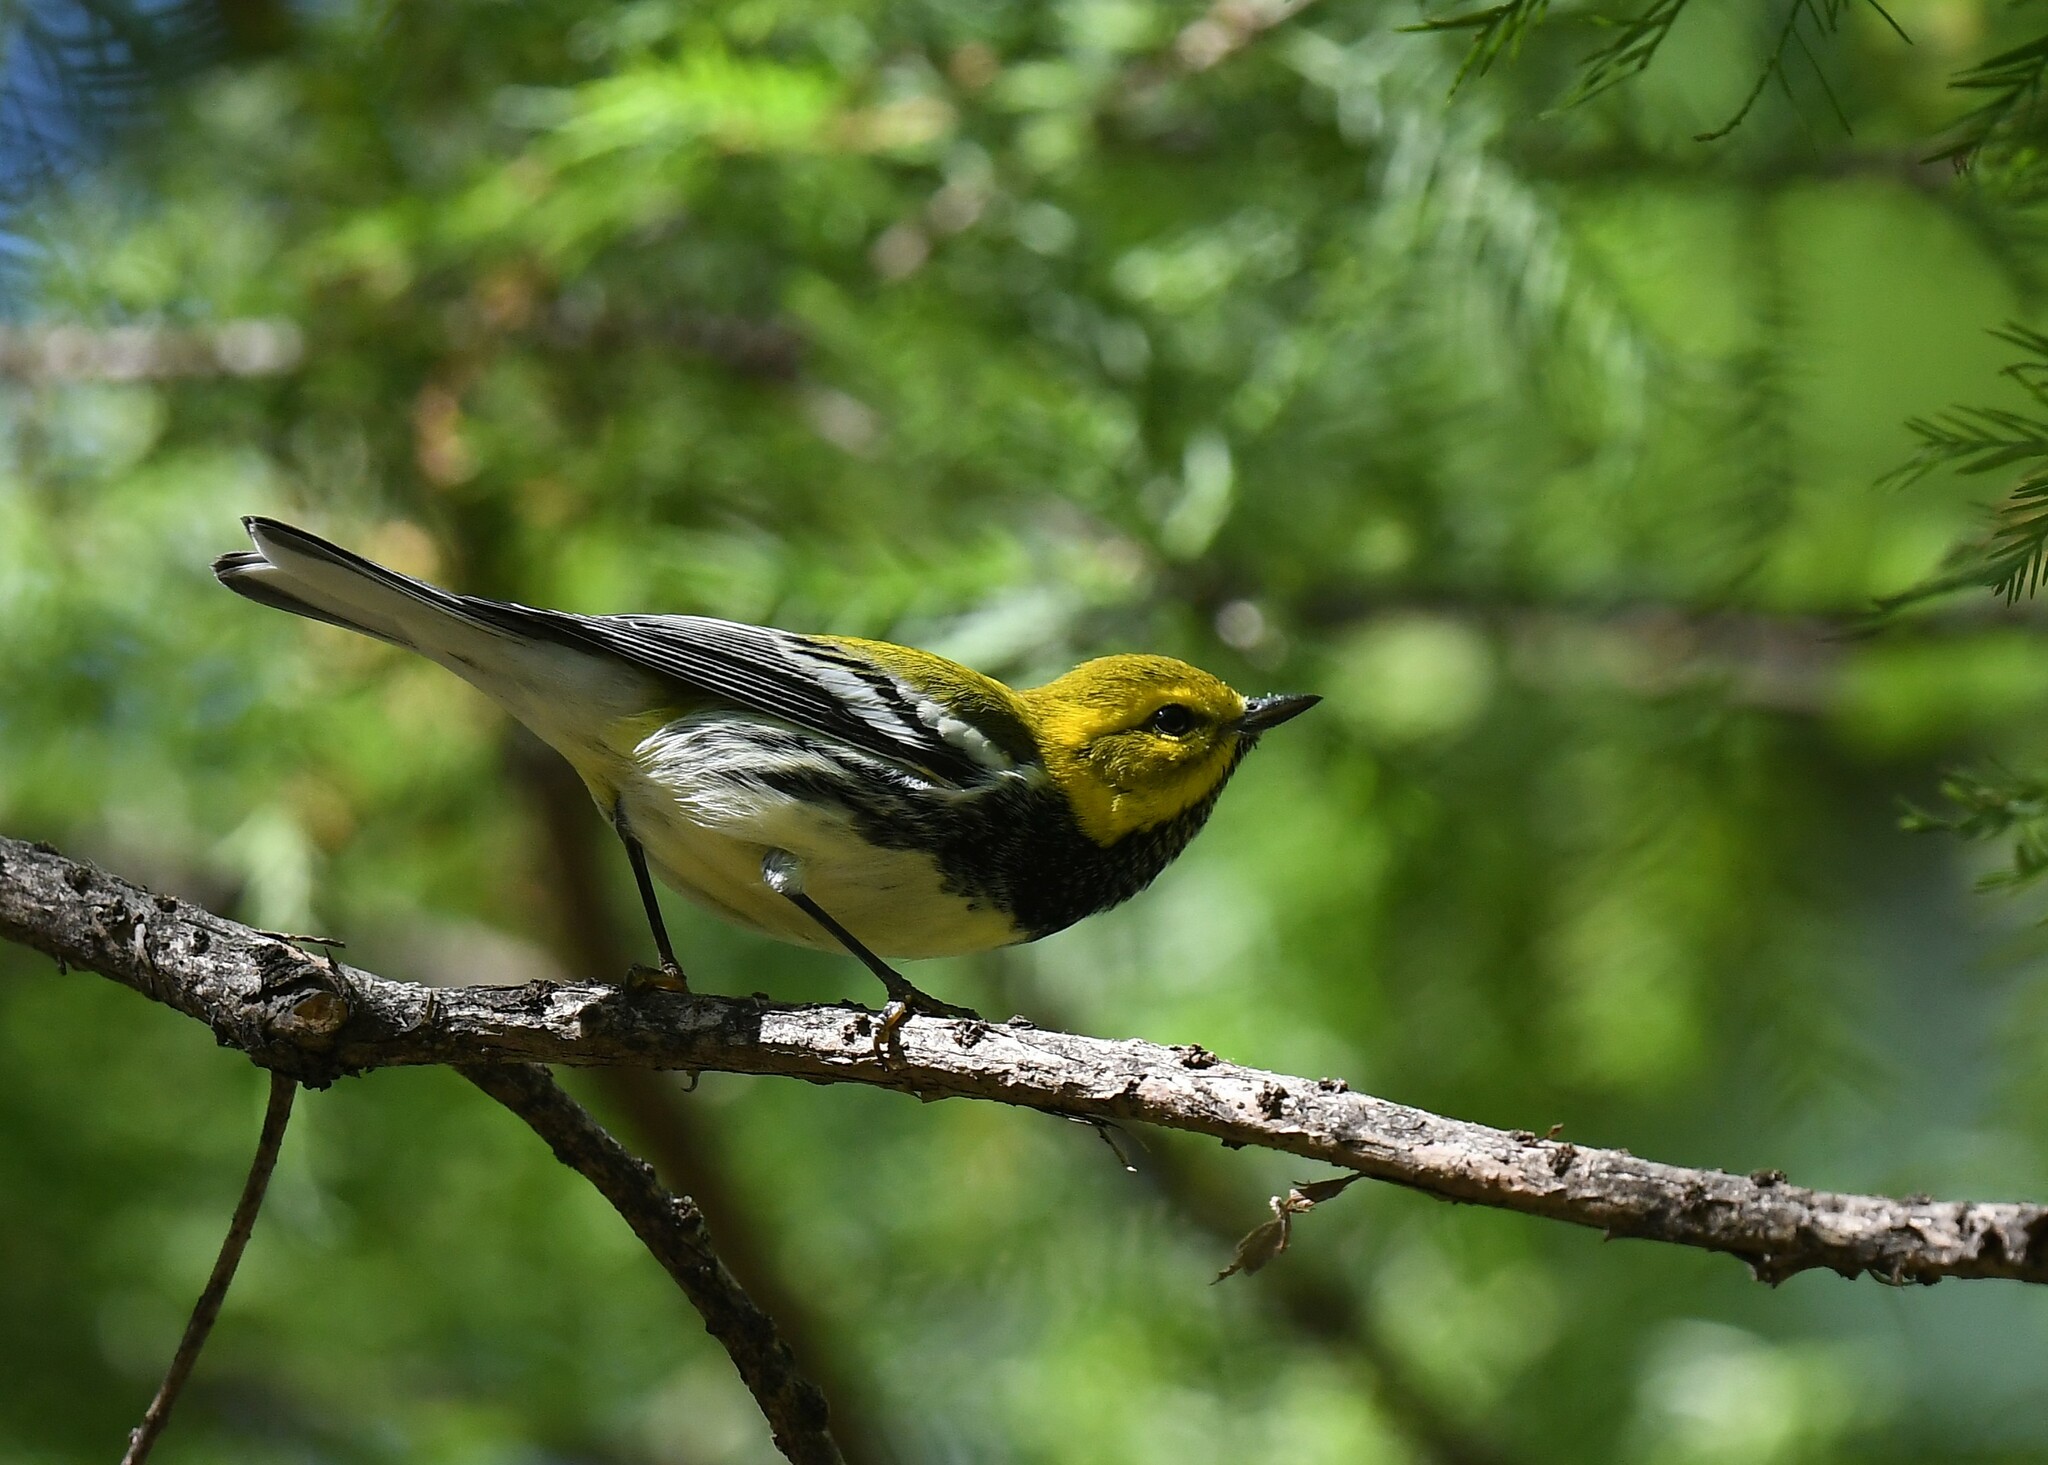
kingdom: Animalia
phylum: Chordata
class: Aves
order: Passeriformes
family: Parulidae
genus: Setophaga
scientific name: Setophaga virens
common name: Black-throated green warbler
